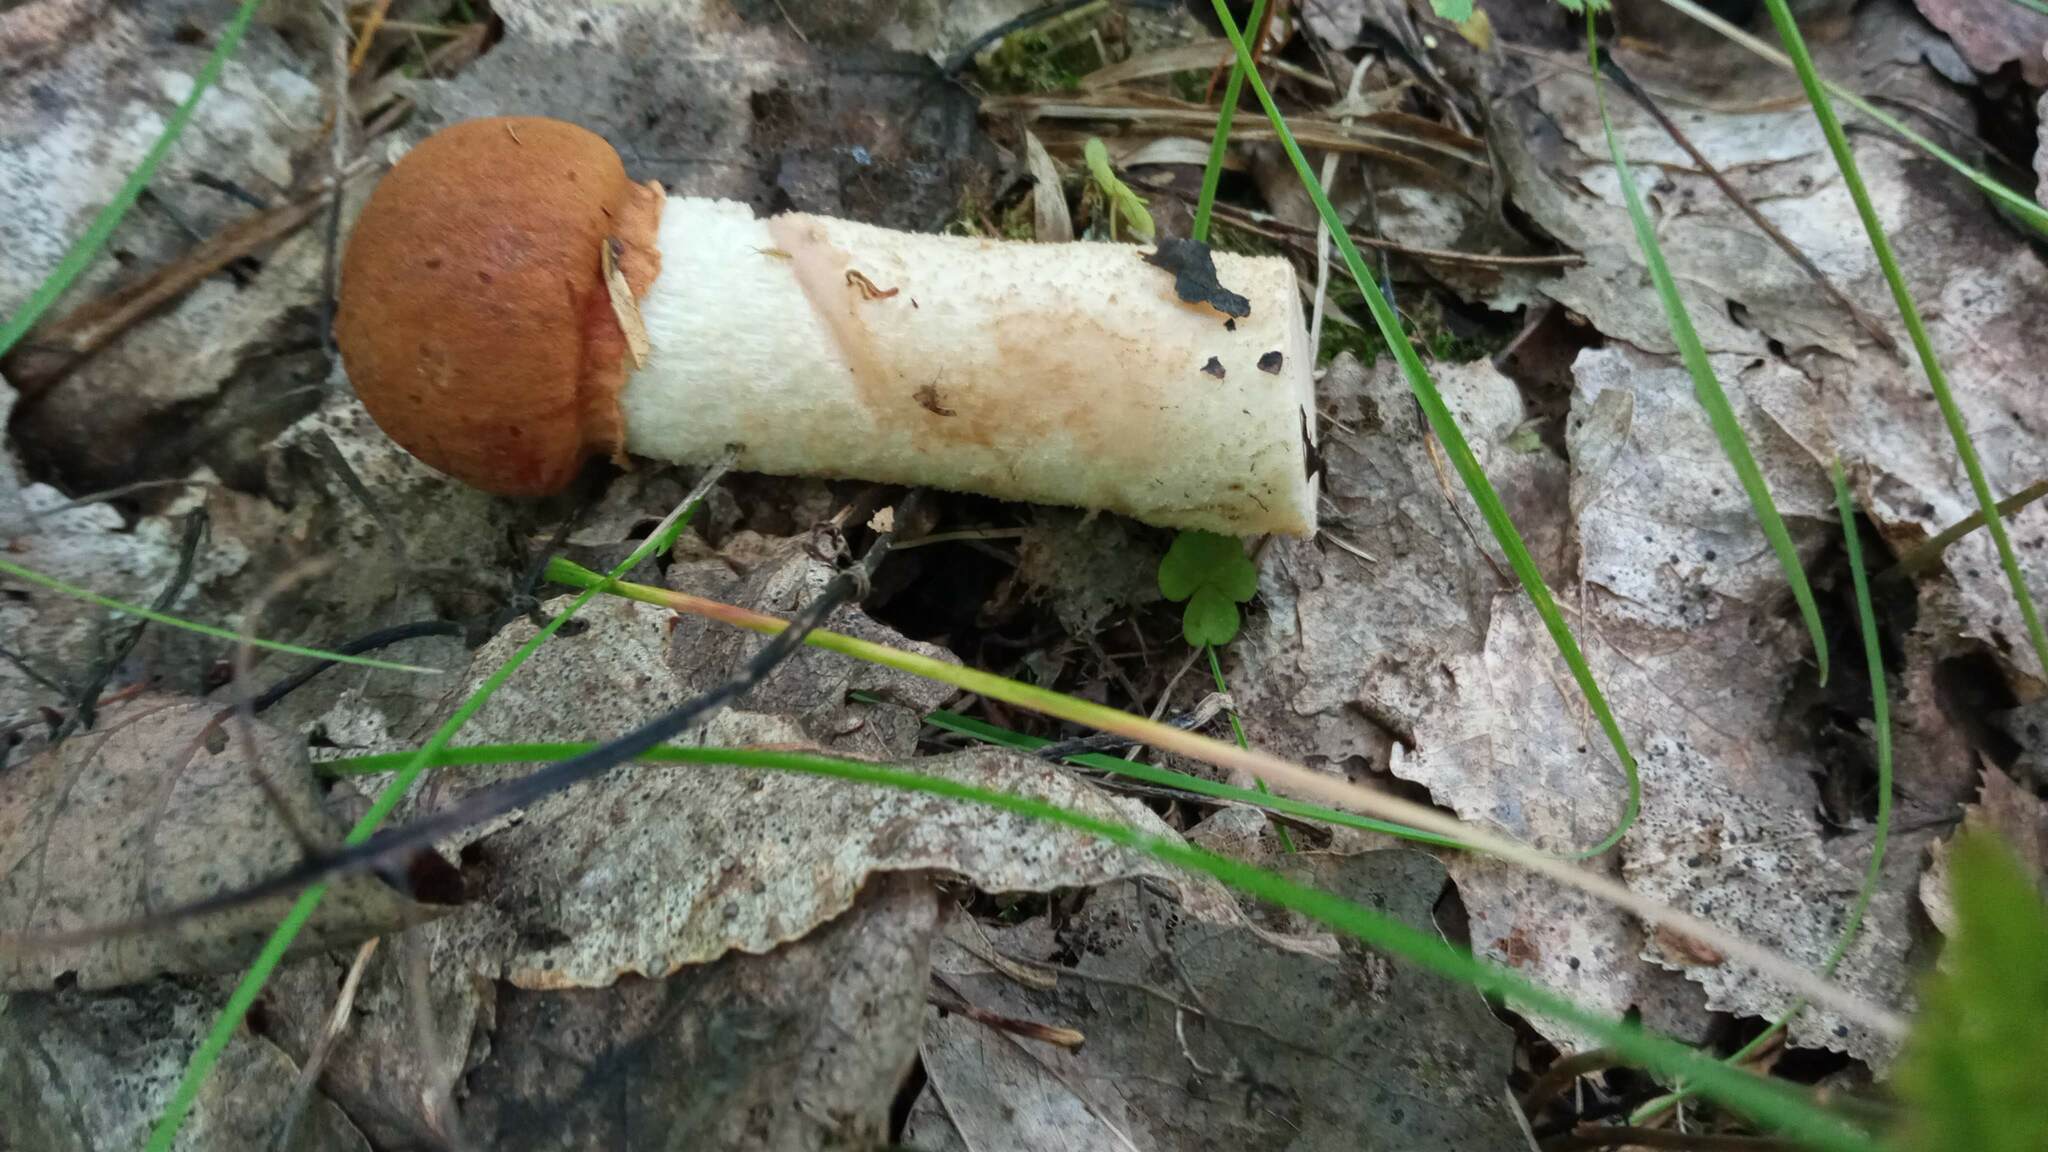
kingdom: Fungi
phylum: Basidiomycota
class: Agaricomycetes
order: Boletales
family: Boletaceae
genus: Leccinum
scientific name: Leccinum albostipitatum
